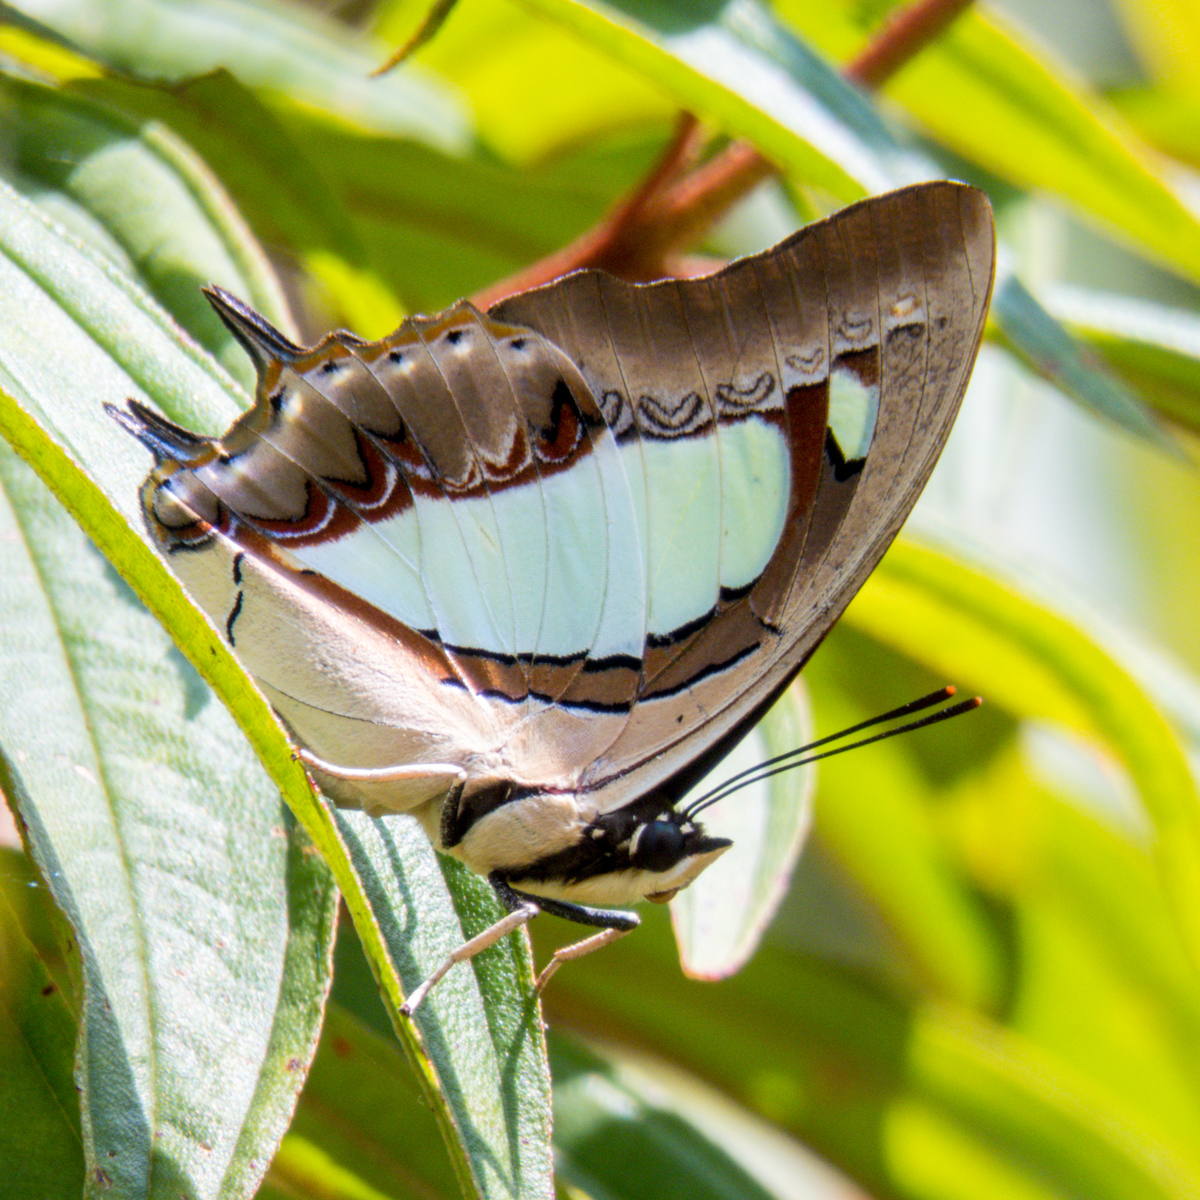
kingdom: Animalia
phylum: Arthropoda
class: Insecta
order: Lepidoptera
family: Nymphalidae
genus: Polyura
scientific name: Polyura arja
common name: Pallid nawab
